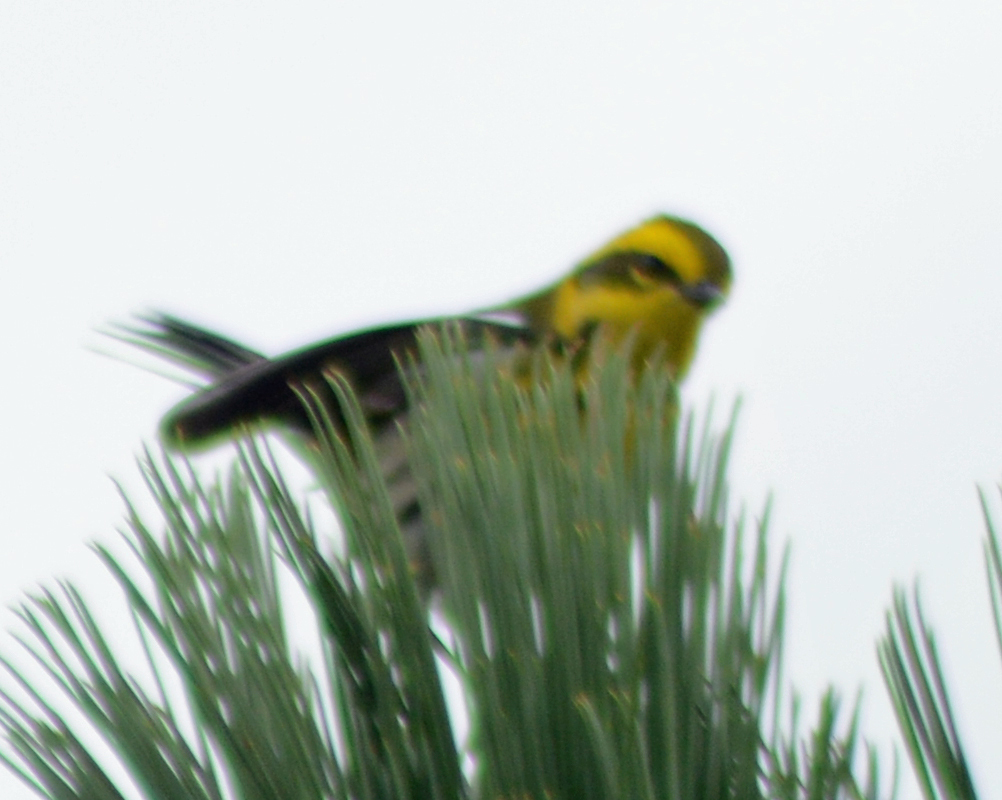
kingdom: Animalia
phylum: Chordata
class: Aves
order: Passeriformes
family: Parulidae
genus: Setophaga
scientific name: Setophaga townsendi
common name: Townsend's warbler
